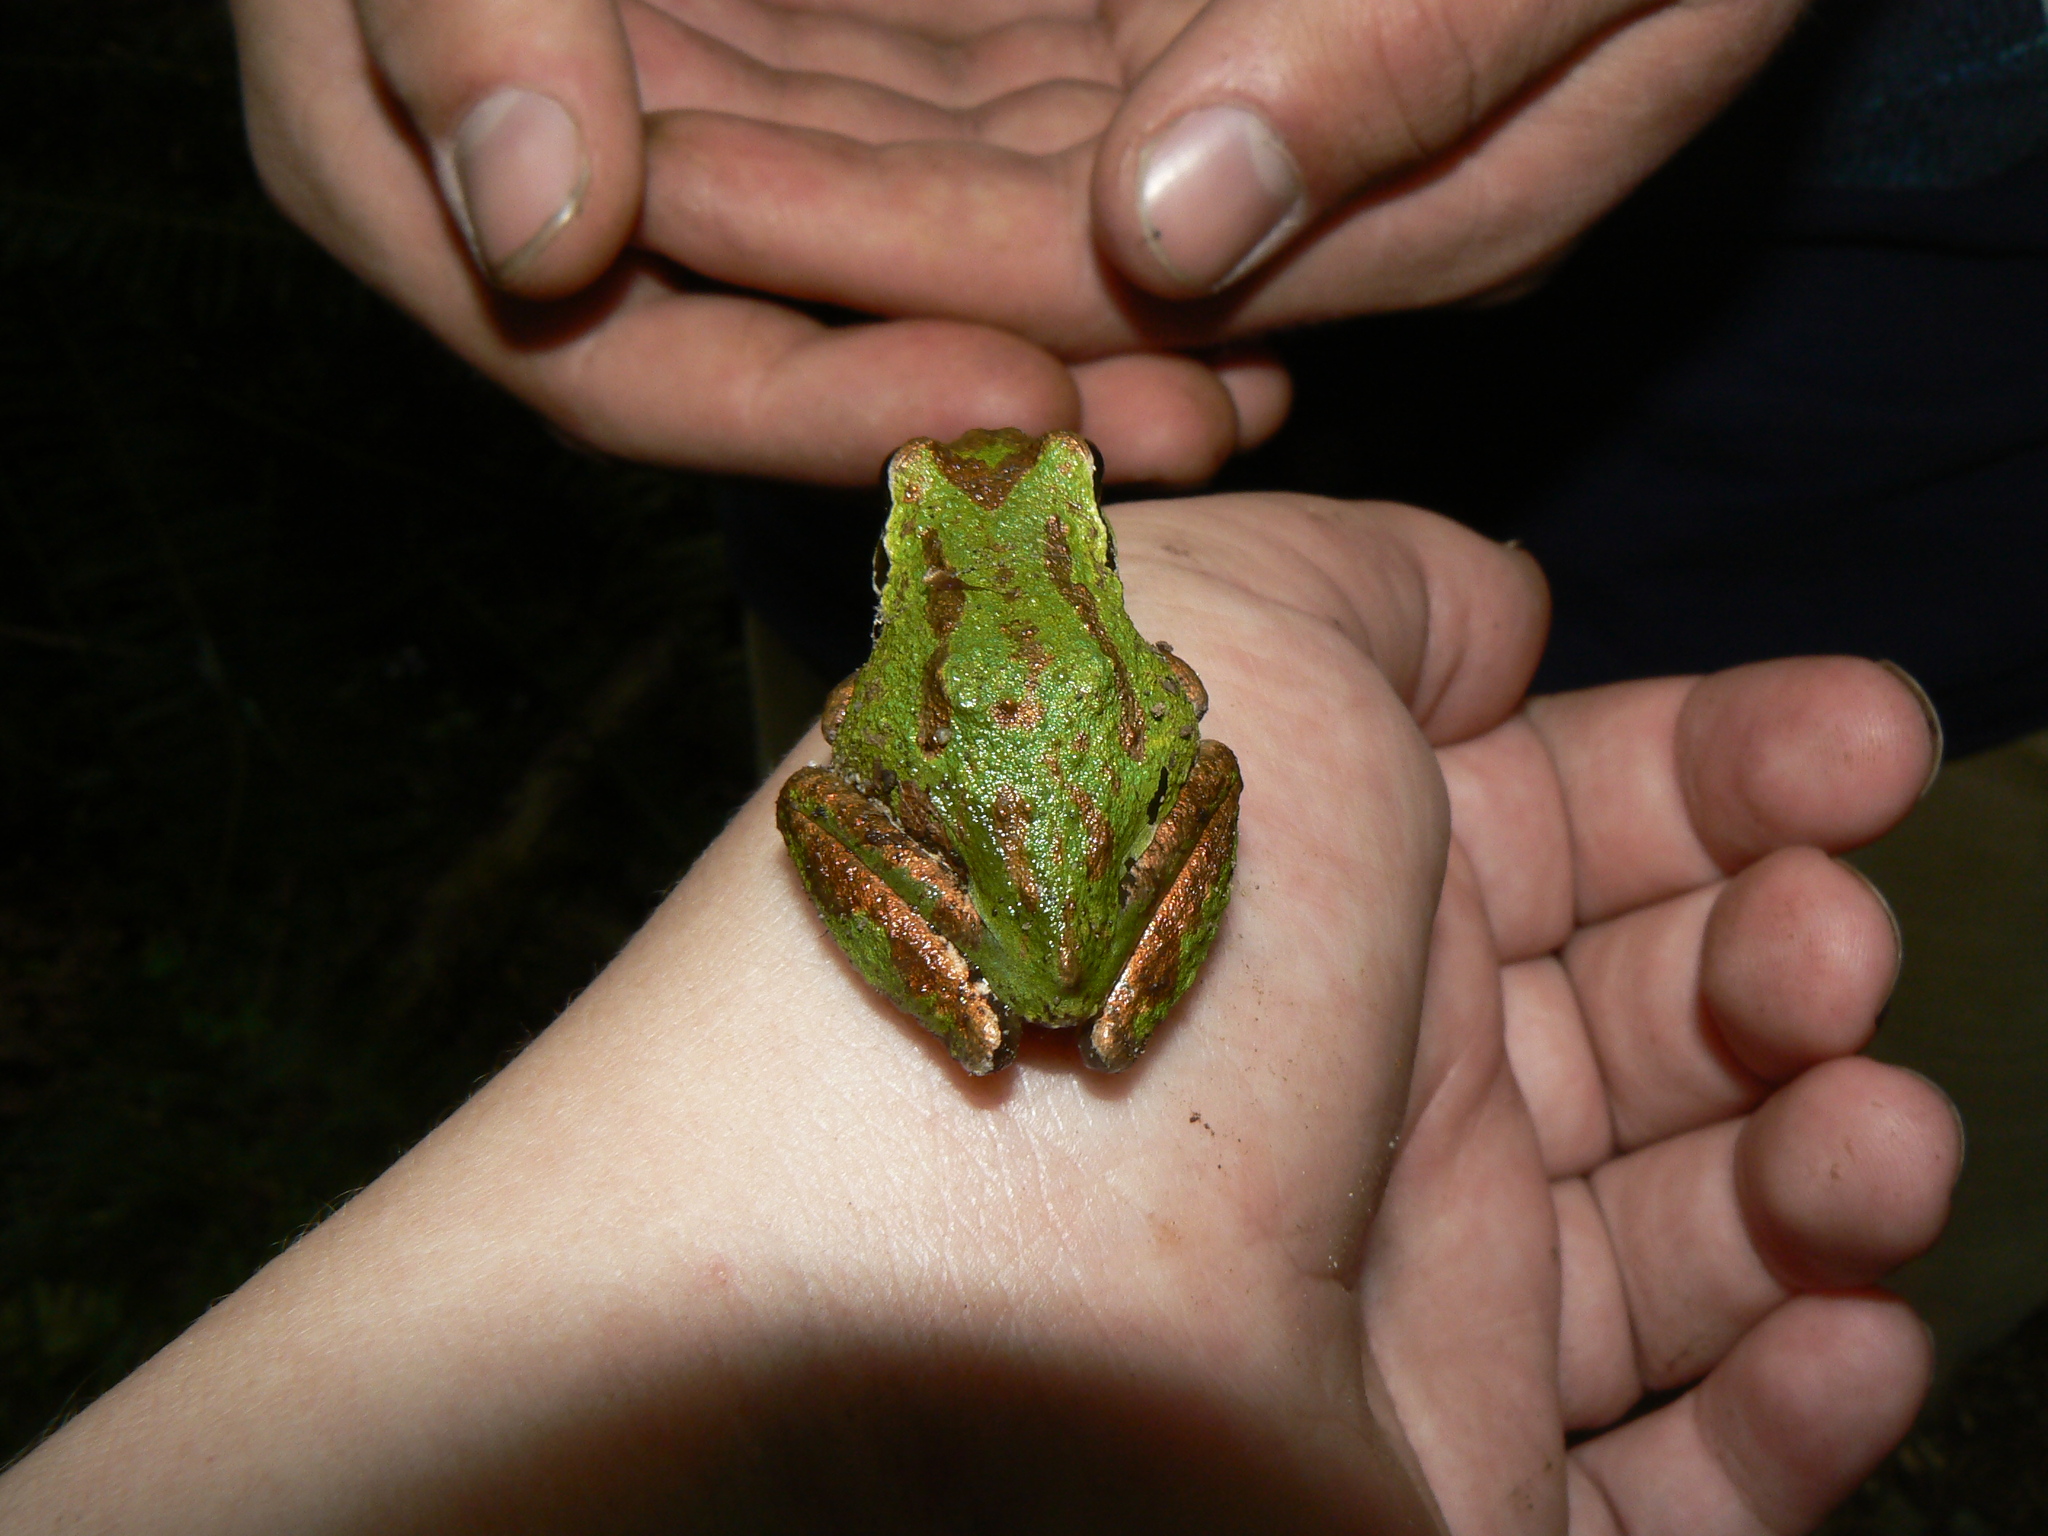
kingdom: Animalia
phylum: Chordata
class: Amphibia
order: Anura
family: Hylidae
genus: Pseudacris
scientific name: Pseudacris regilla
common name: Pacific chorus frog
